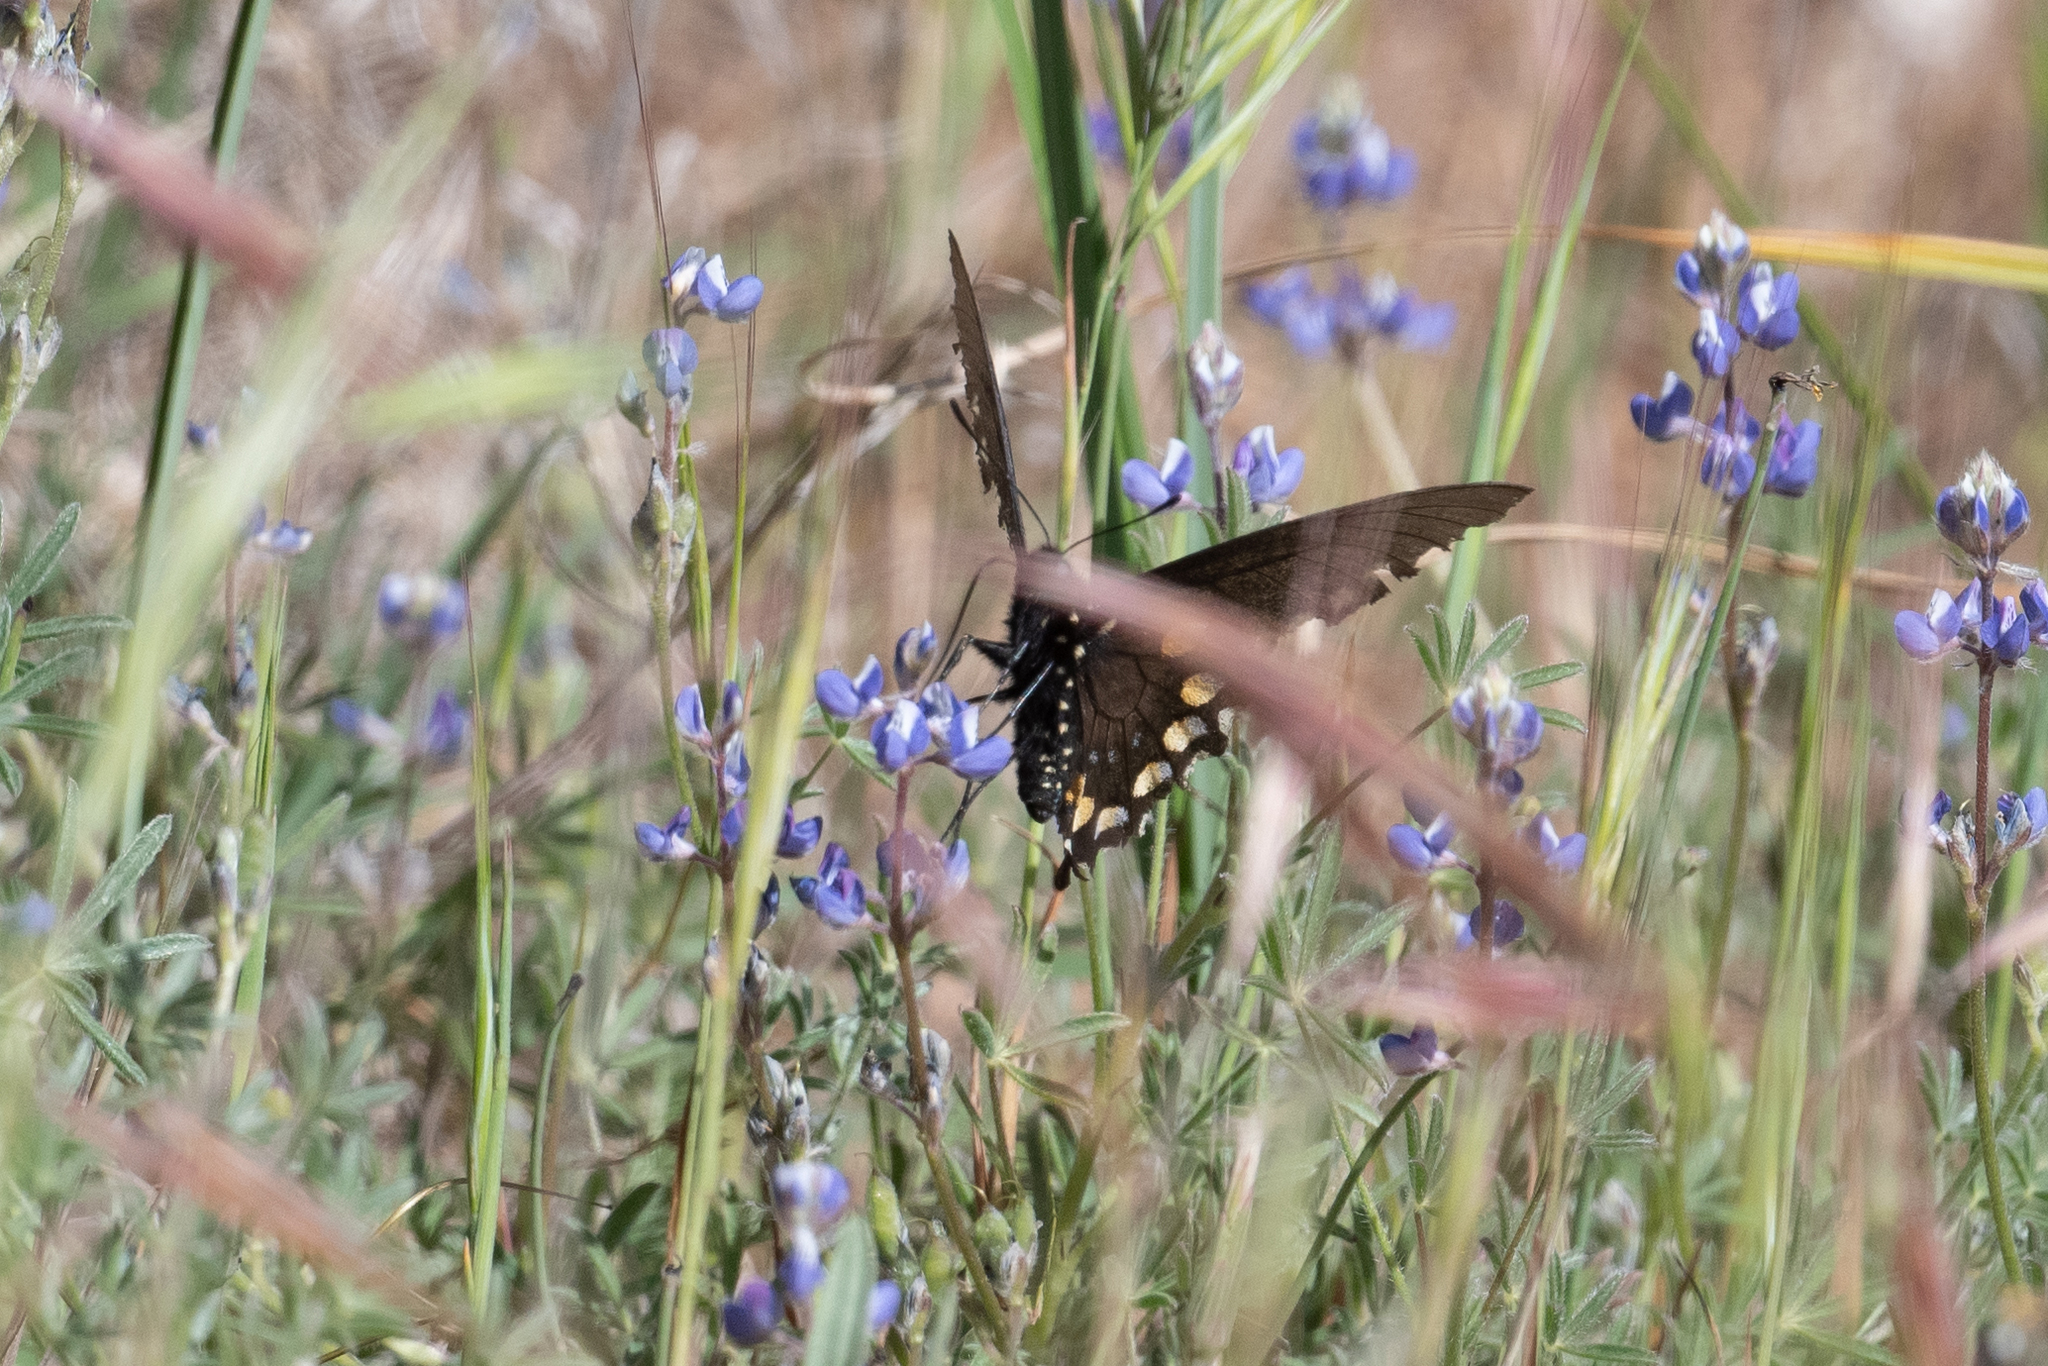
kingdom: Animalia
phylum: Arthropoda
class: Insecta
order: Lepidoptera
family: Papilionidae
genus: Battus
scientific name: Battus philenor
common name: Pipevine swallowtail
